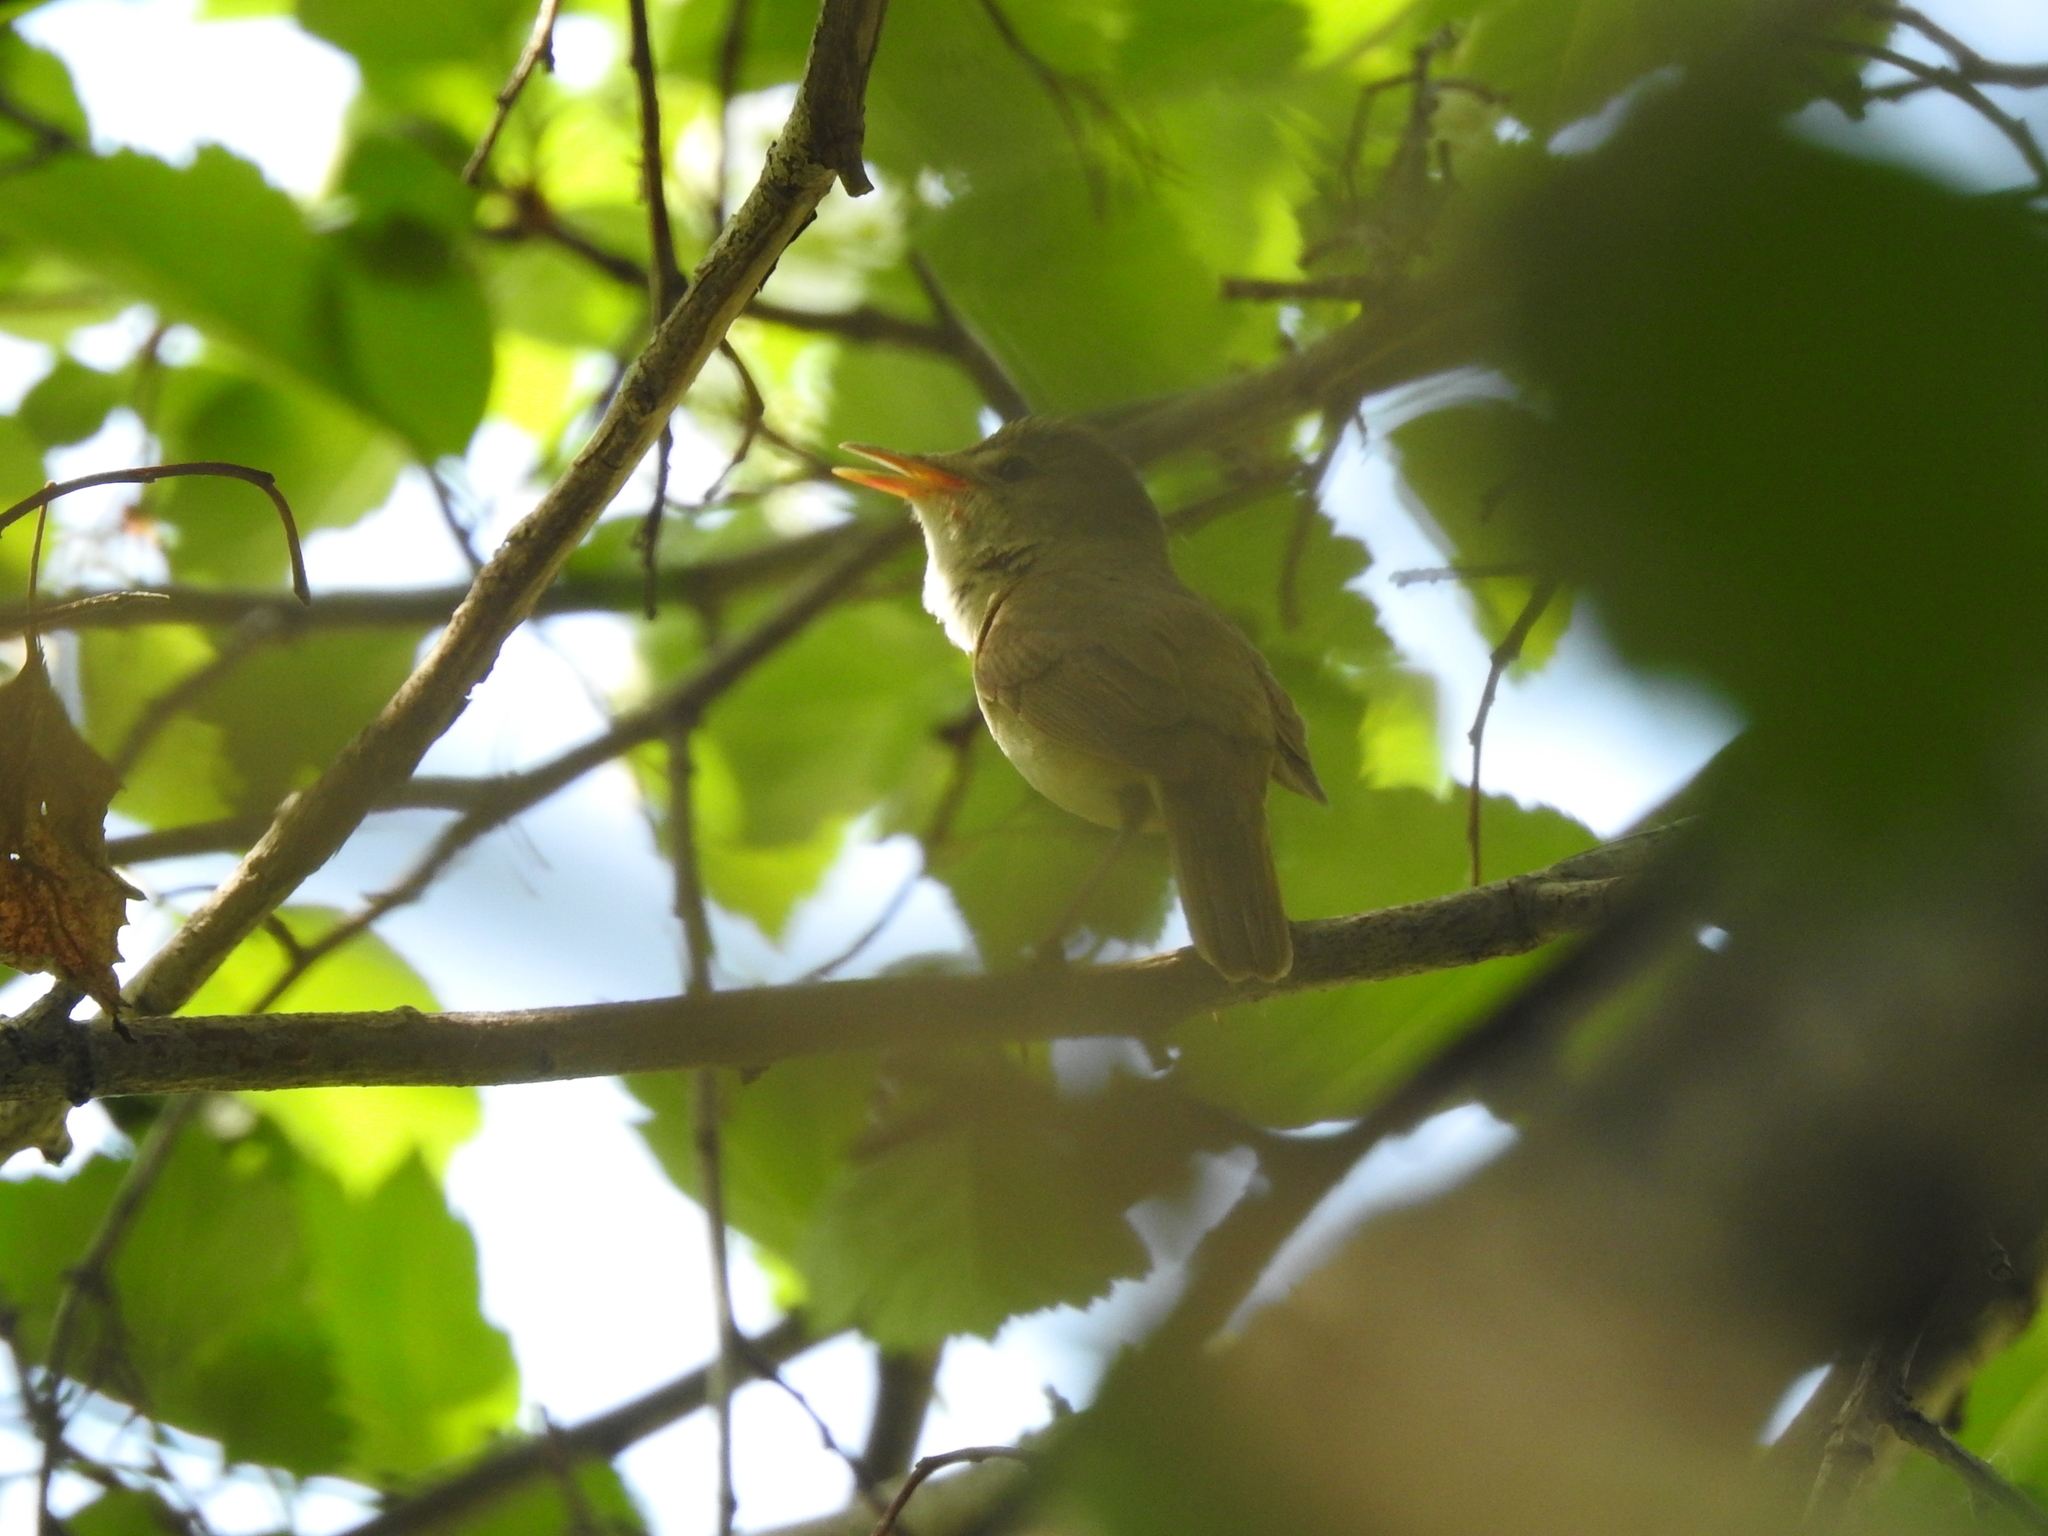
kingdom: Animalia
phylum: Chordata
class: Aves
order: Passeriformes
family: Acrocephalidae
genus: Acrocephalus
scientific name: Acrocephalus dumetorum
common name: Blyth's reed warbler
